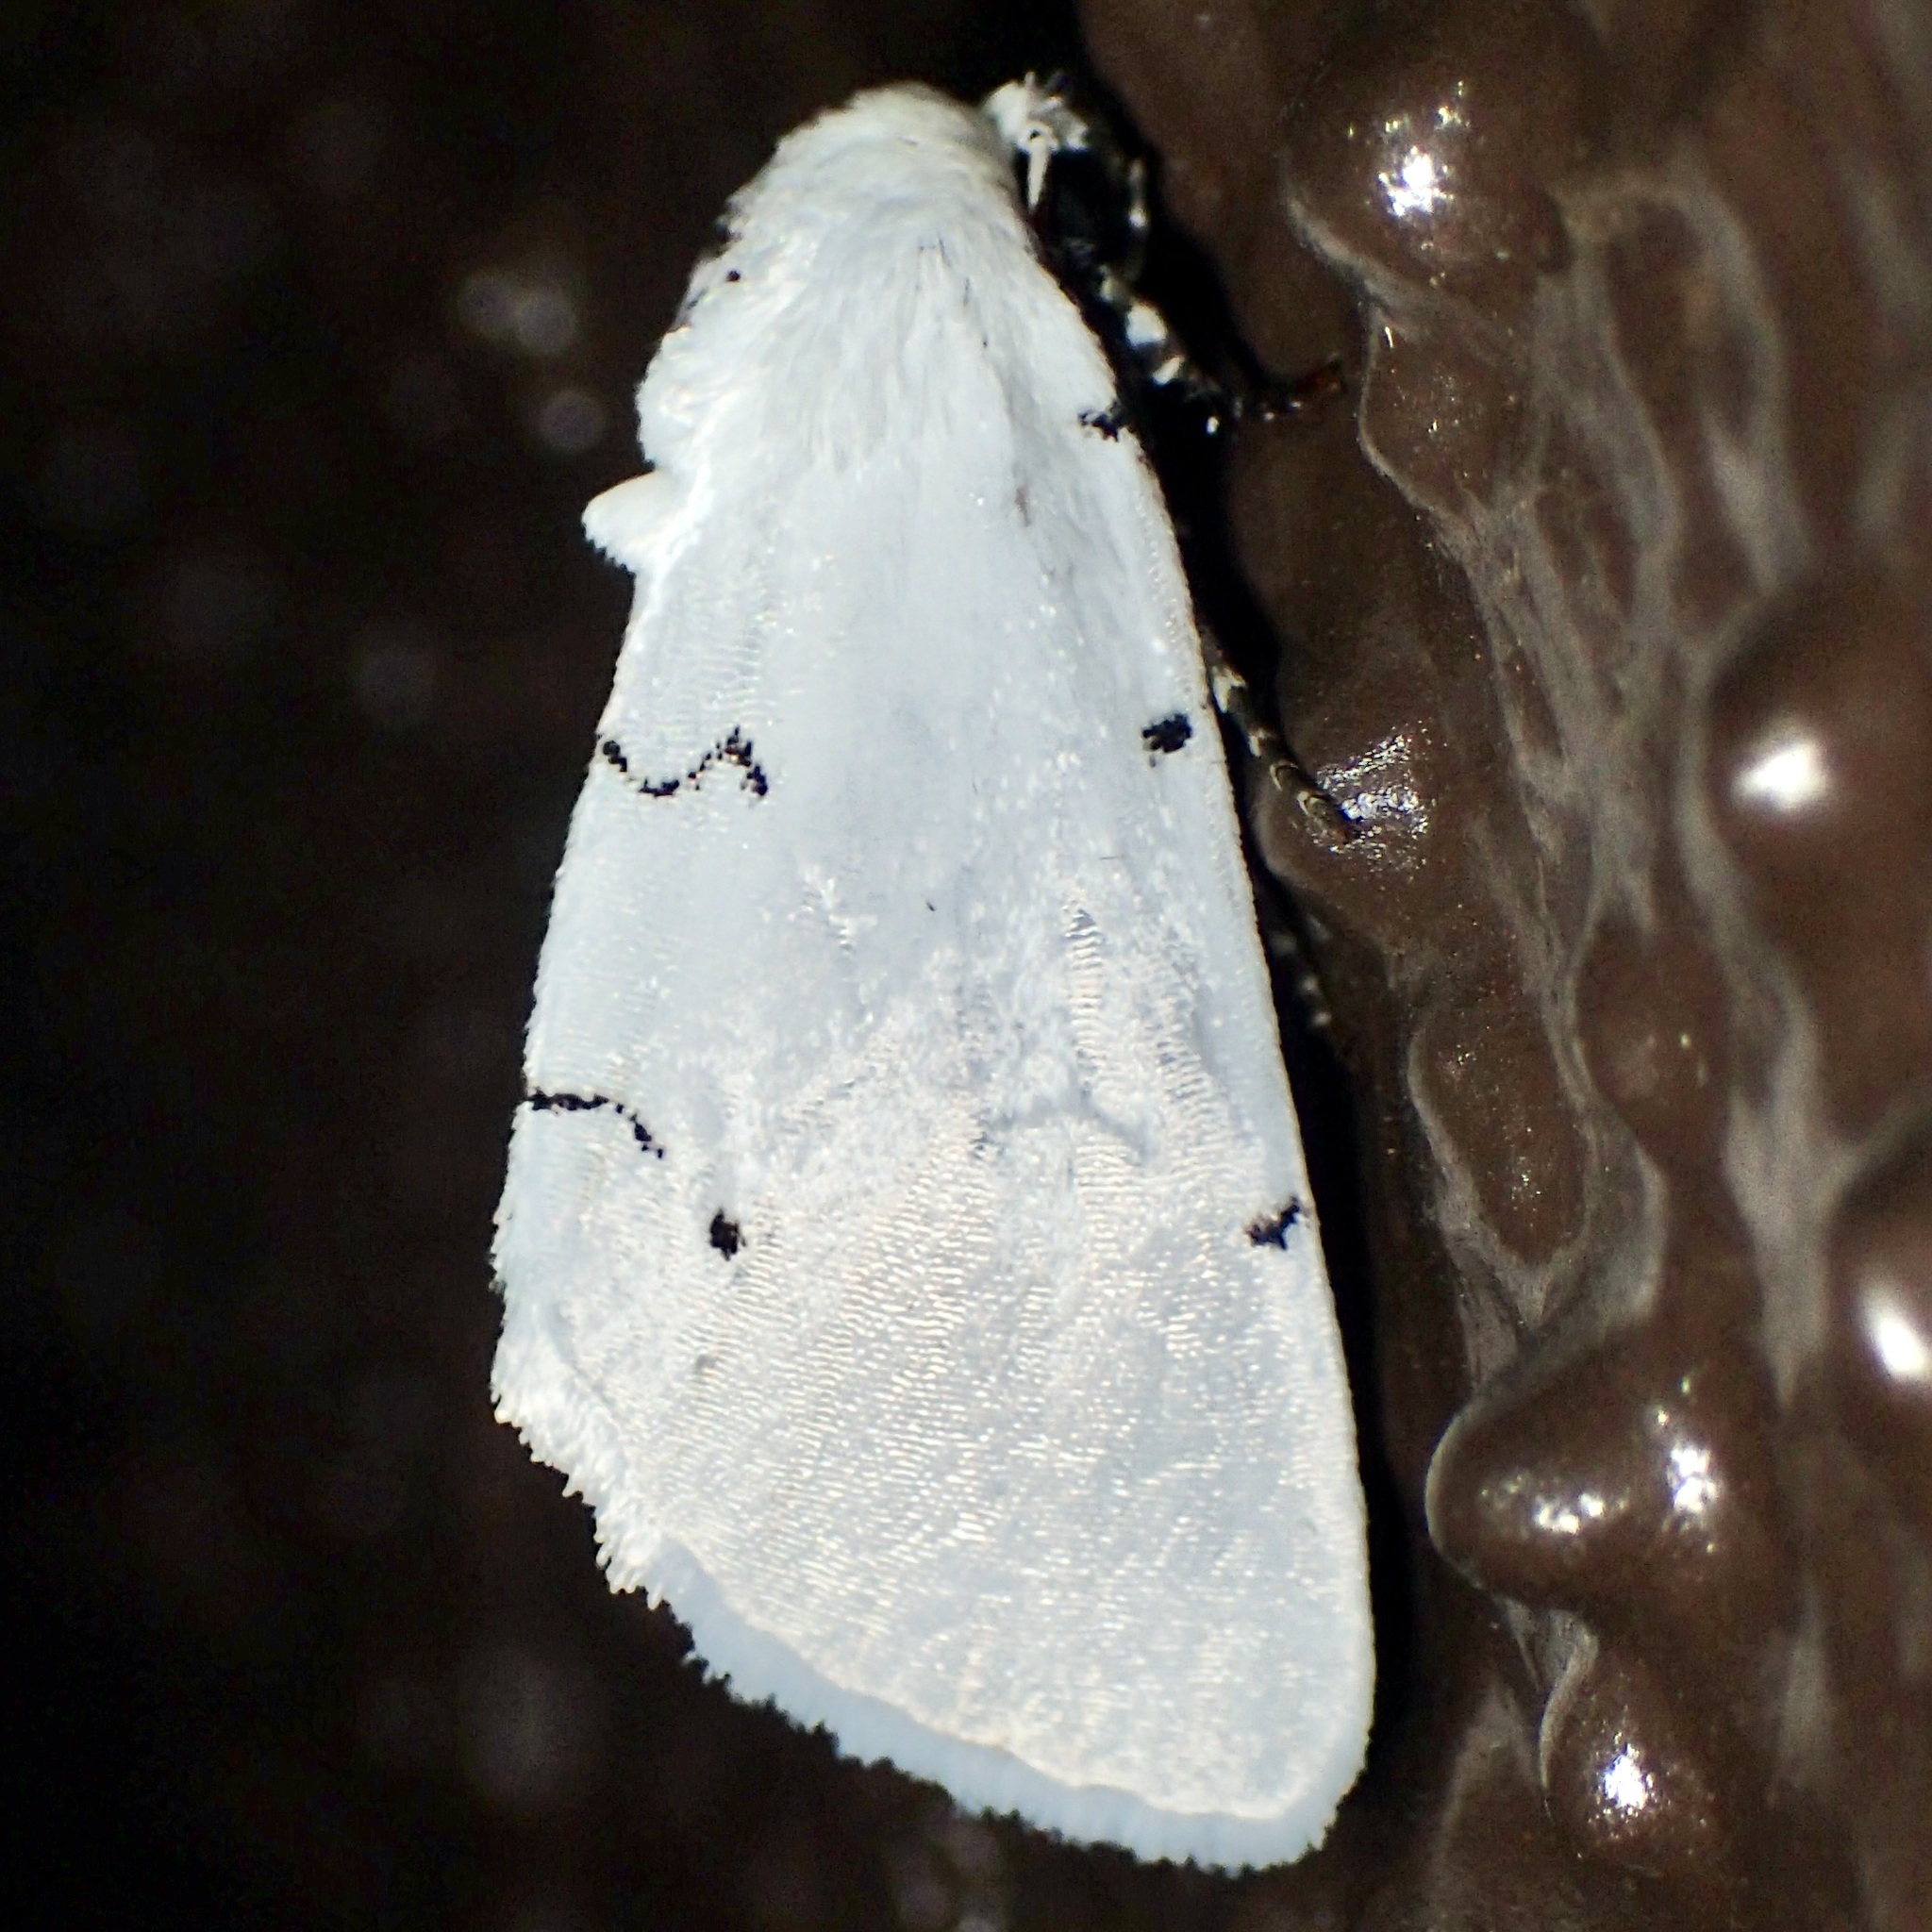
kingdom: Animalia
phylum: Arthropoda
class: Insecta
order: Lepidoptera
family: Noctuidae
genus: Hemioslaria
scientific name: Hemioslaria pima
